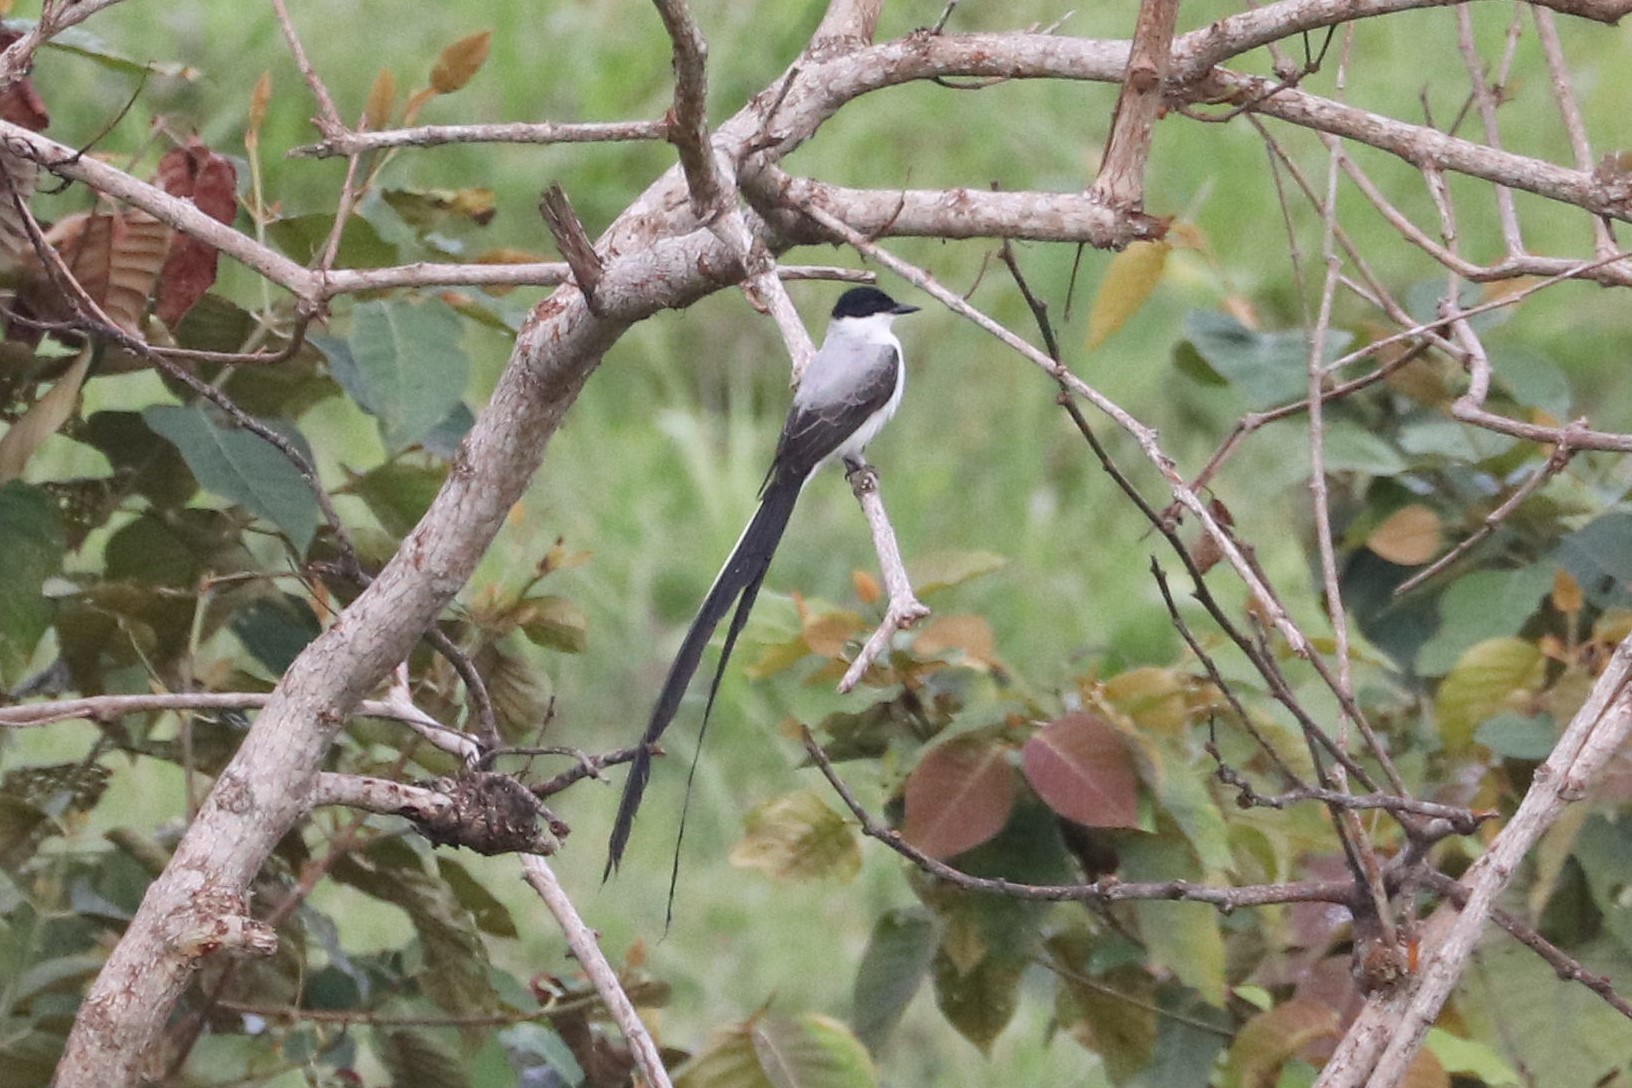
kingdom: Animalia
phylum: Chordata
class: Aves
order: Passeriformes
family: Tyrannidae
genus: Tyrannus
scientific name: Tyrannus savana
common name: Fork-tailed flycatcher
